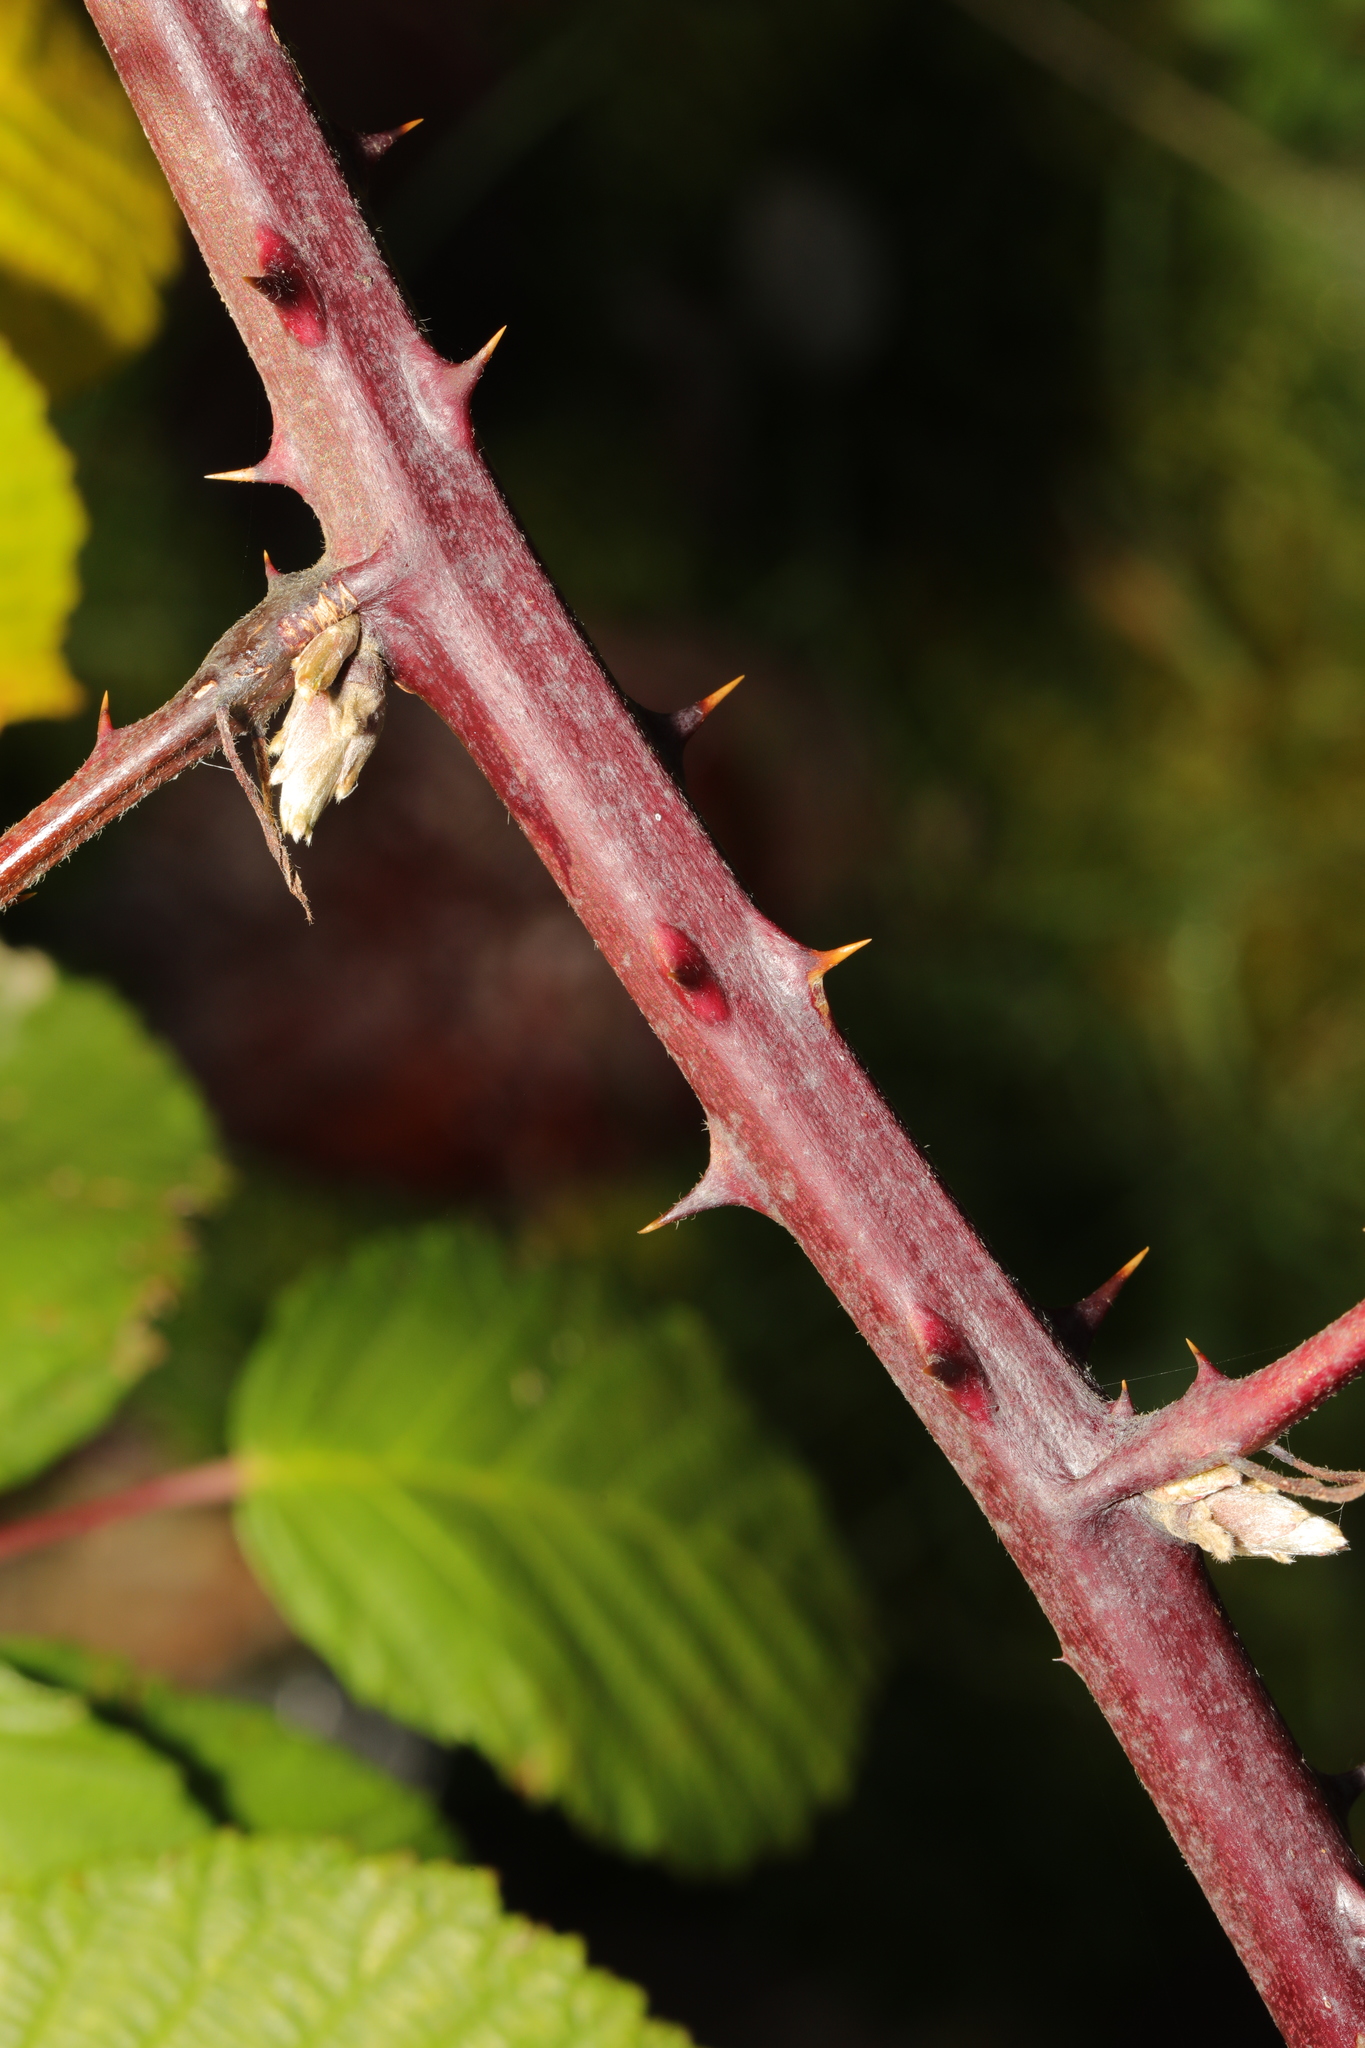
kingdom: Plantae
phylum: Tracheophyta
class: Magnoliopsida
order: Rosales
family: Rosaceae
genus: Rubus
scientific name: Rubus armeniacus
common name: Himalayan blackberry
